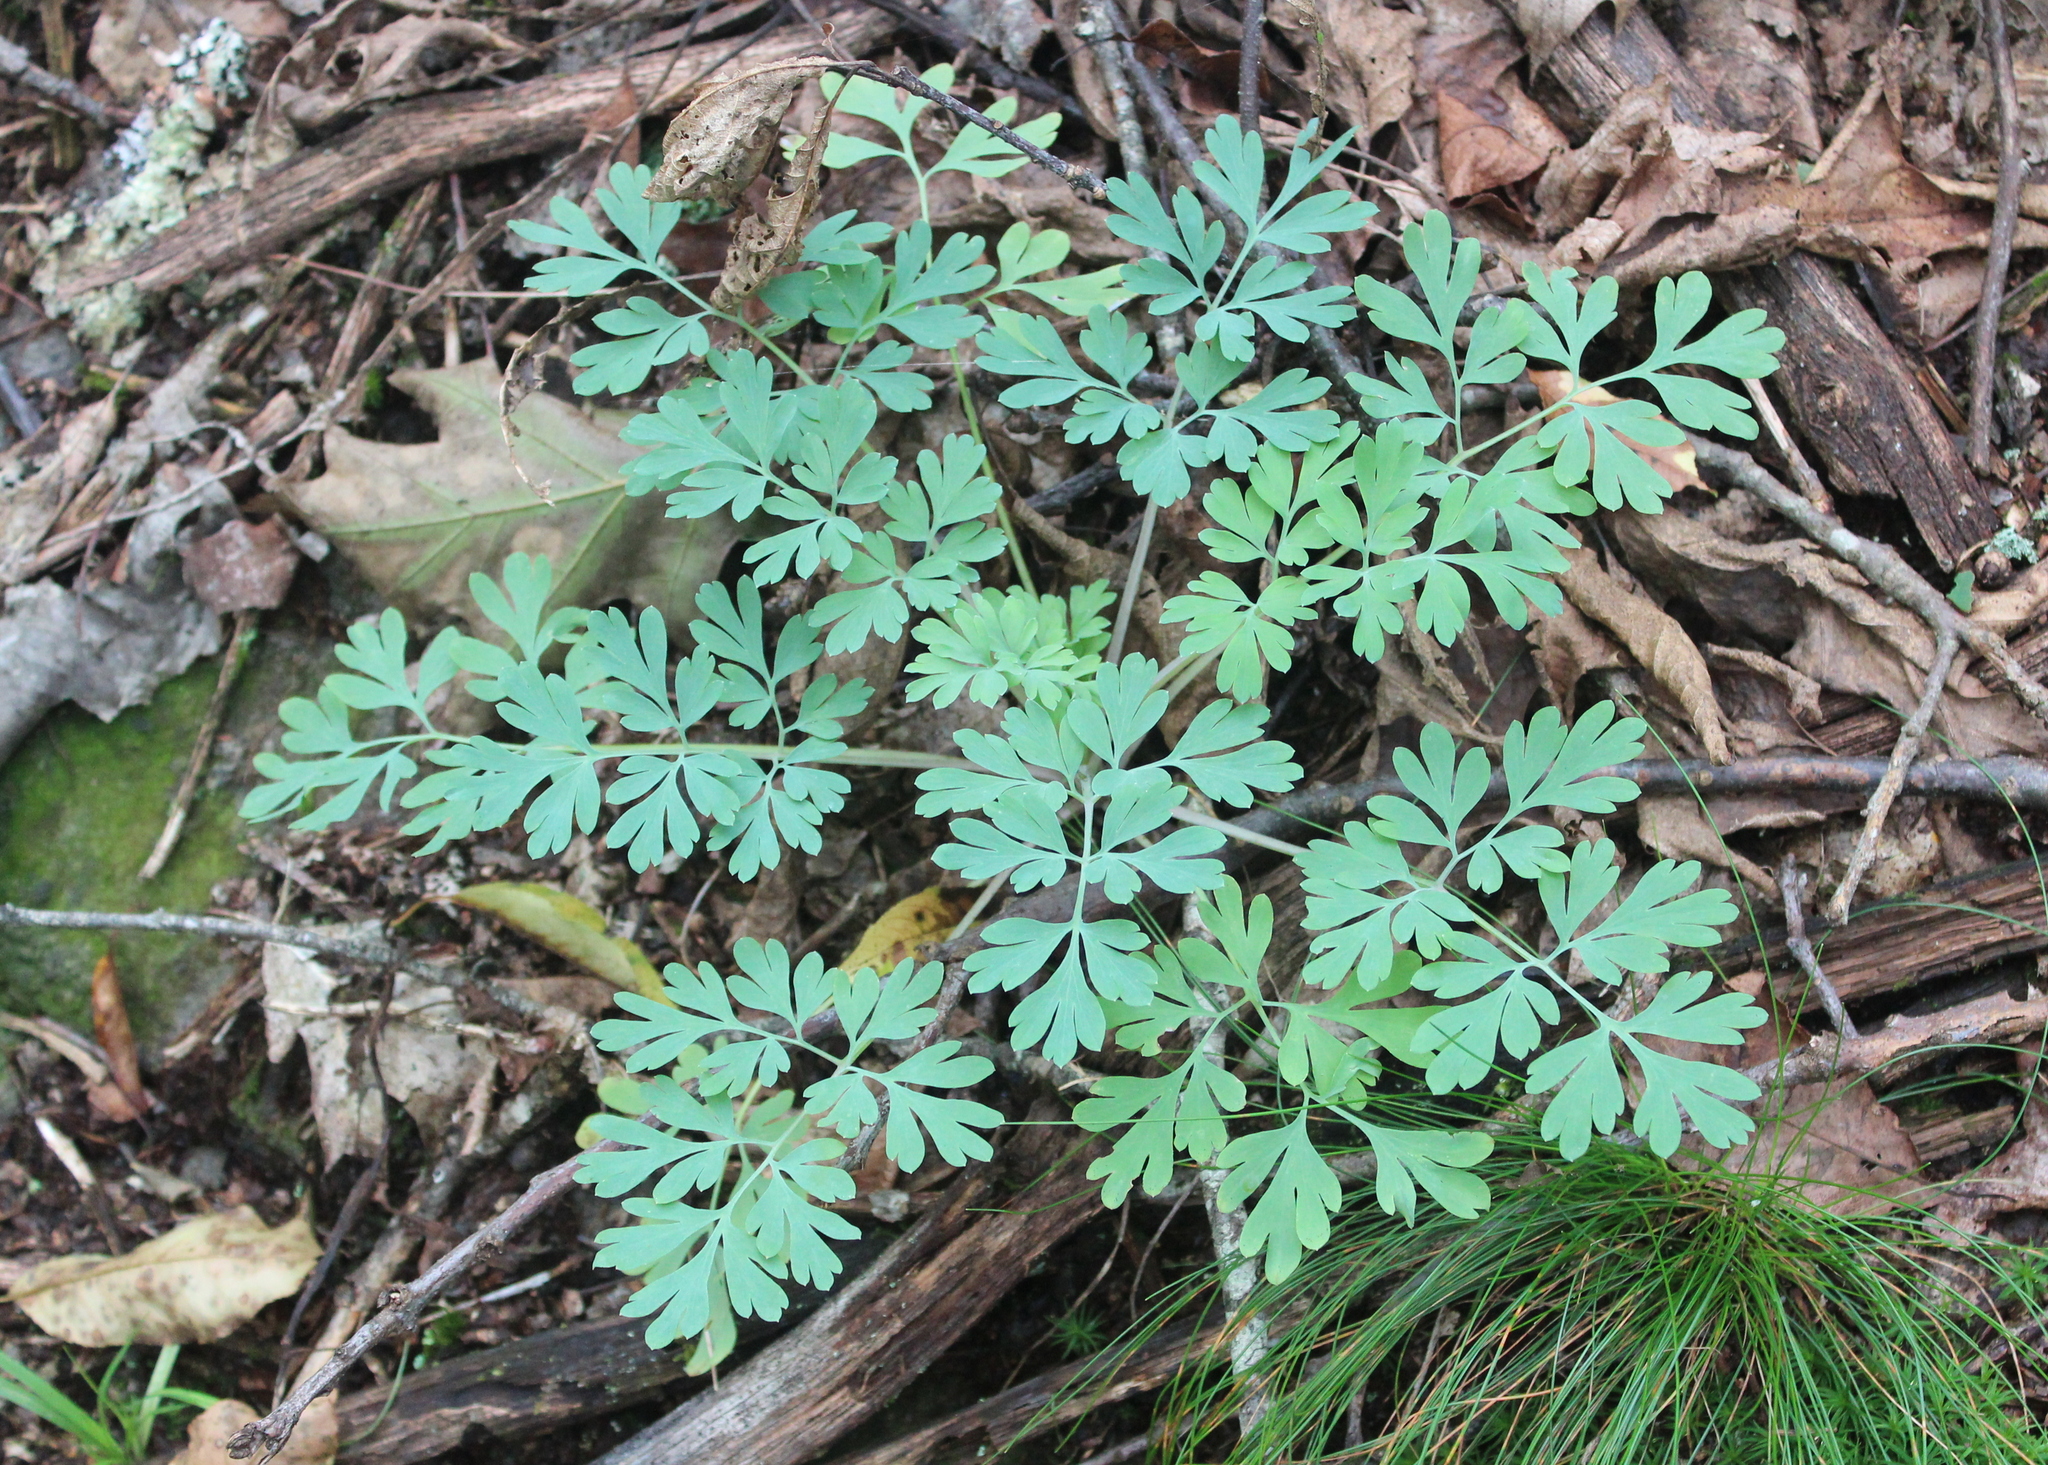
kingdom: Plantae
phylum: Tracheophyta
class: Magnoliopsida
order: Ranunculales
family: Papaveraceae
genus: Capnoides
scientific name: Capnoides sempervirens
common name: Rock harlequin
